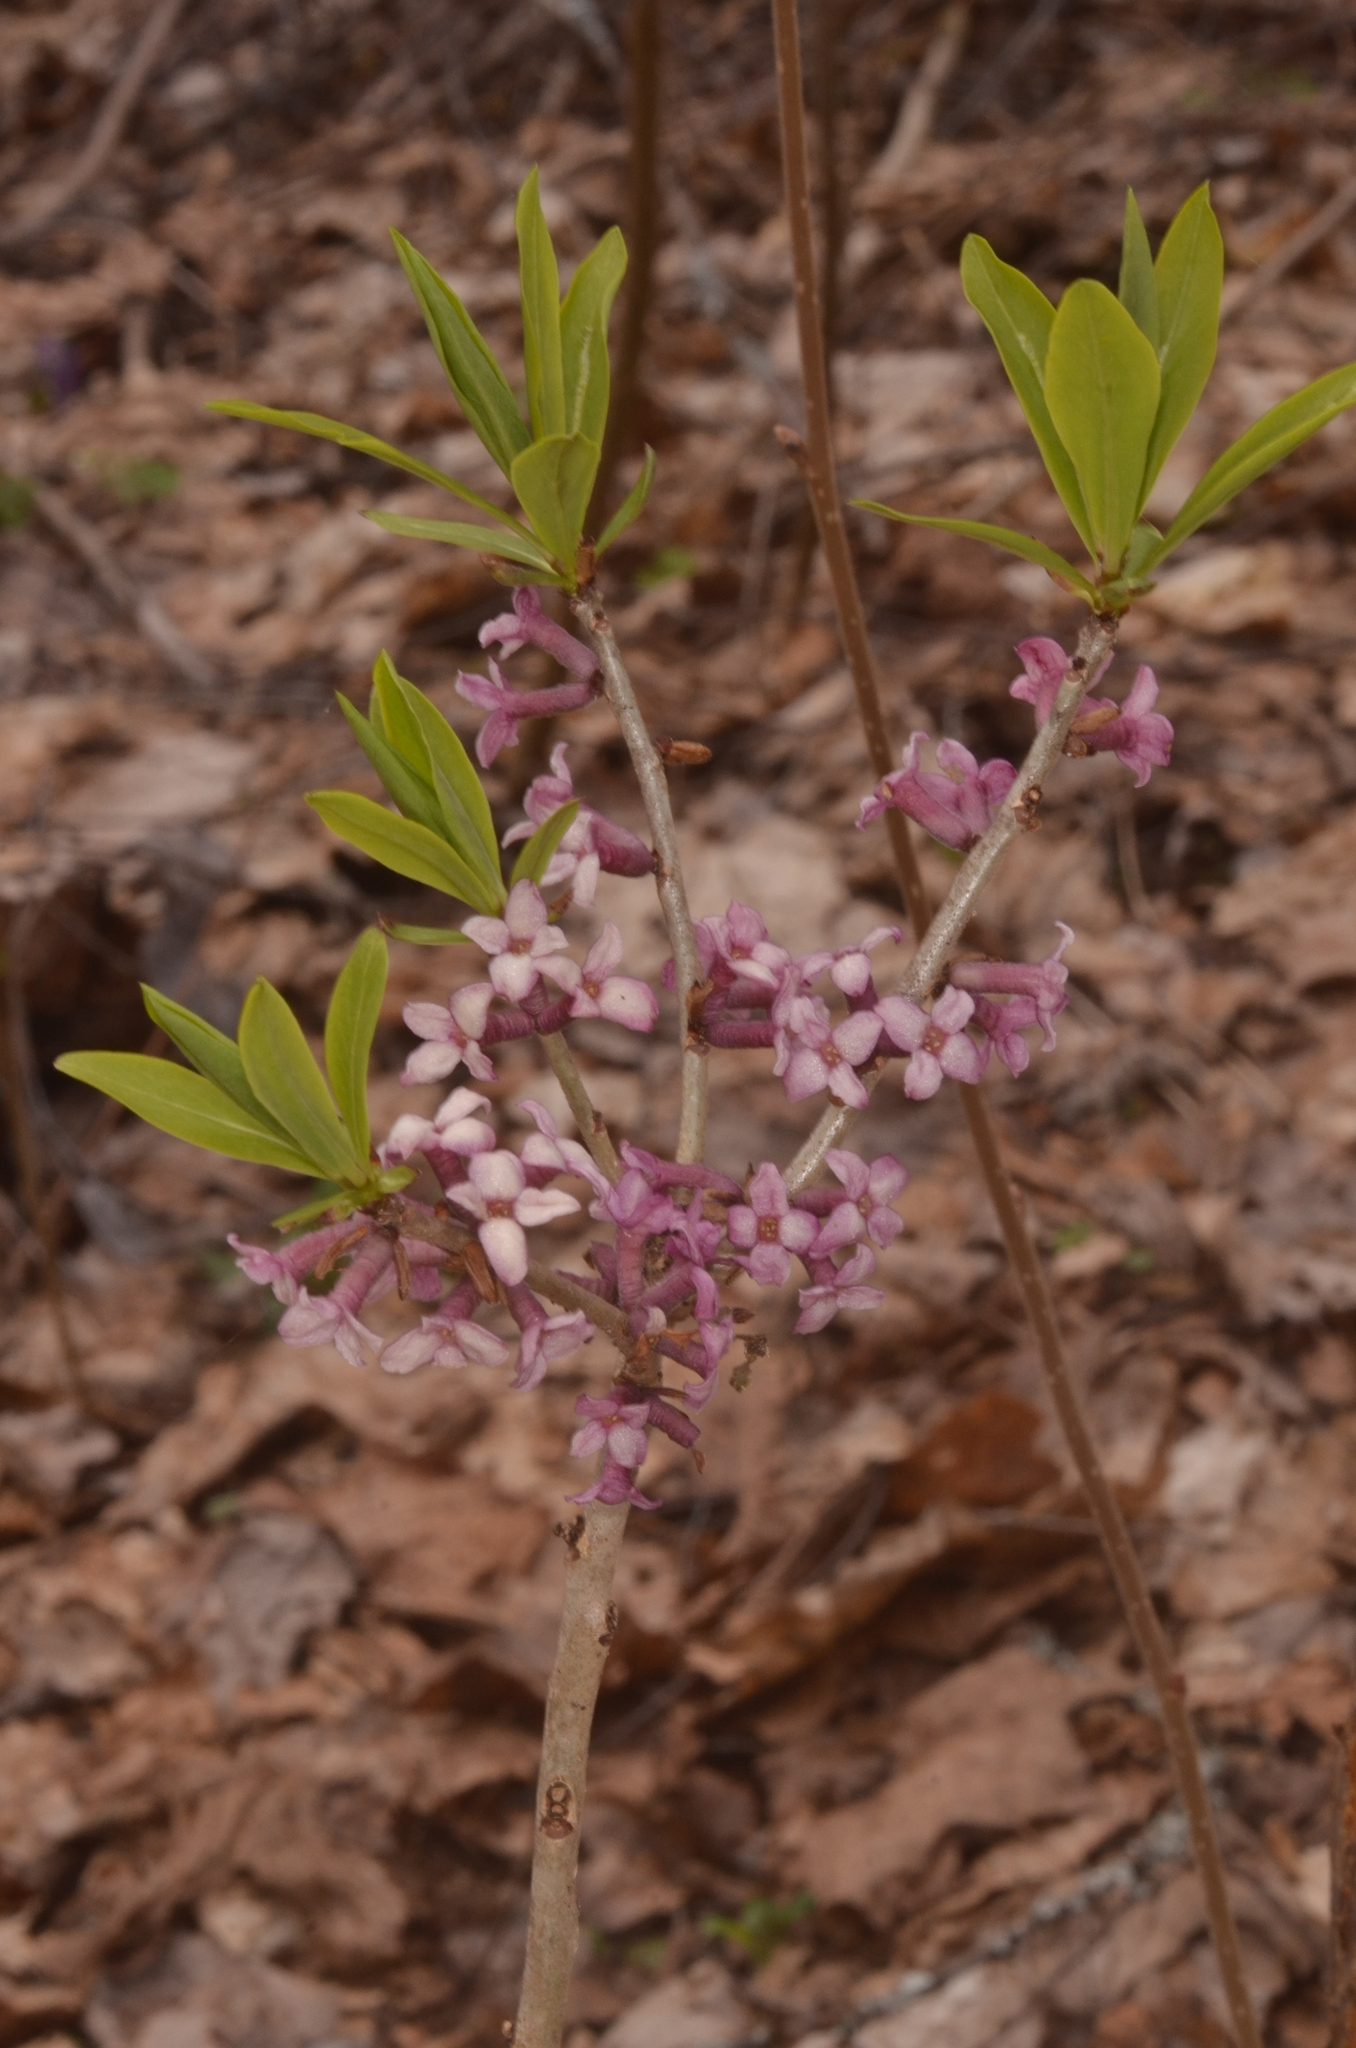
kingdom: Plantae
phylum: Tracheophyta
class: Magnoliopsida
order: Malvales
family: Thymelaeaceae
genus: Daphne
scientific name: Daphne mezereum
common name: Mezereon
